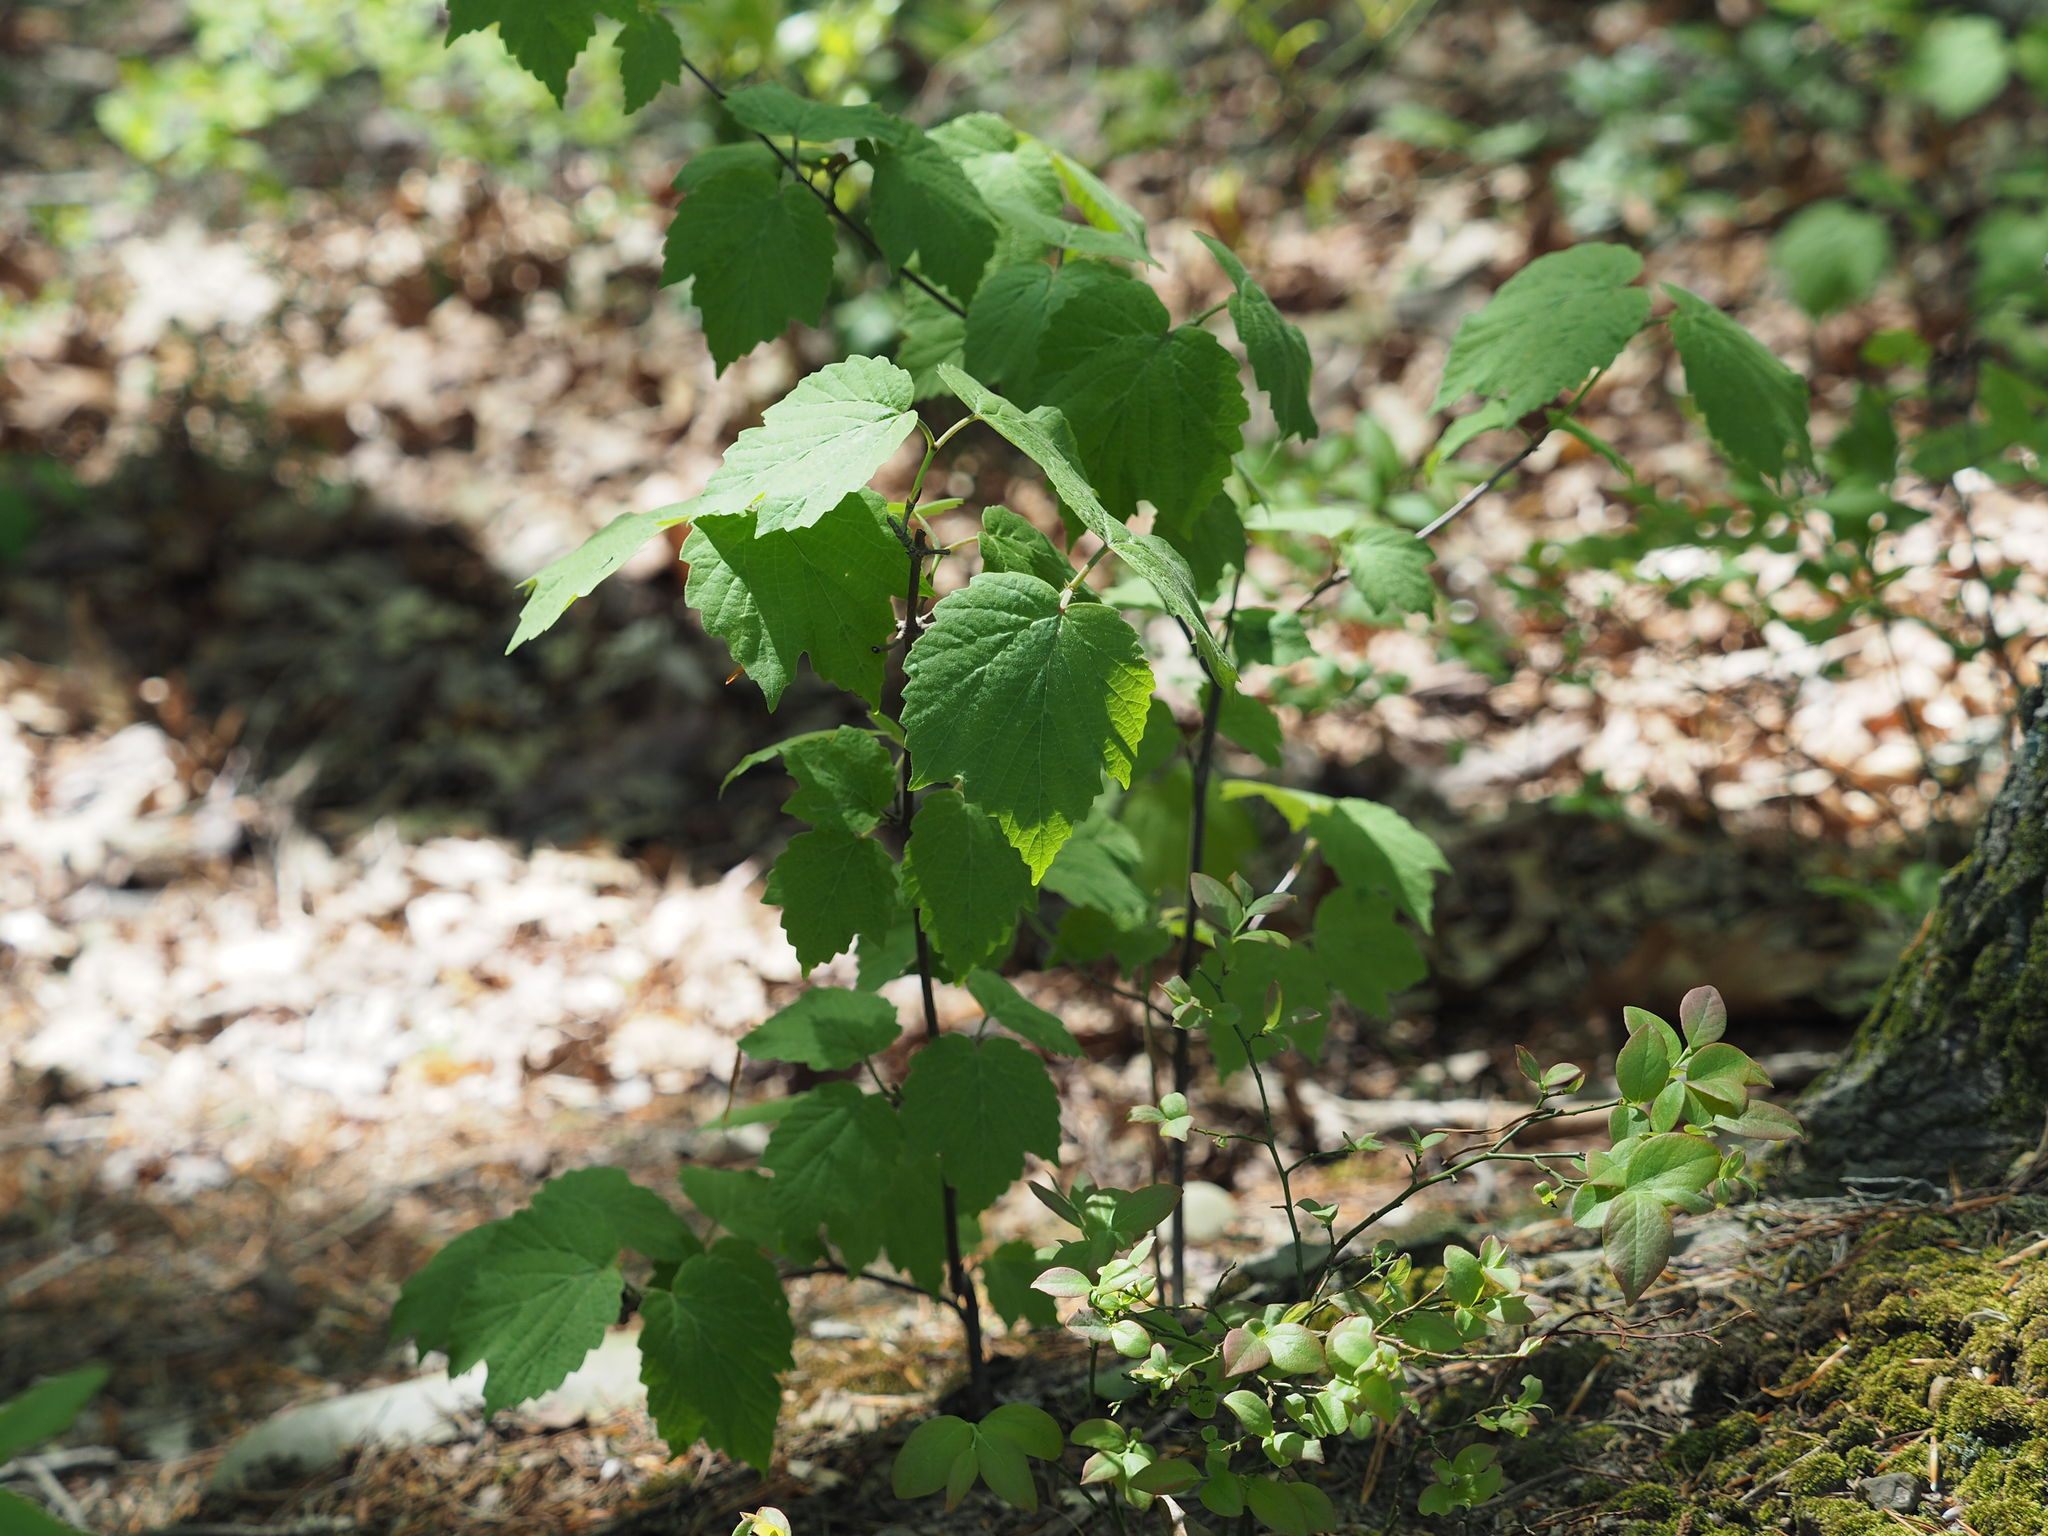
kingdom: Plantae
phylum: Tracheophyta
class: Magnoliopsida
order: Dipsacales
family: Viburnaceae
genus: Viburnum
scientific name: Viburnum acerifolium
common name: Dockmackie
